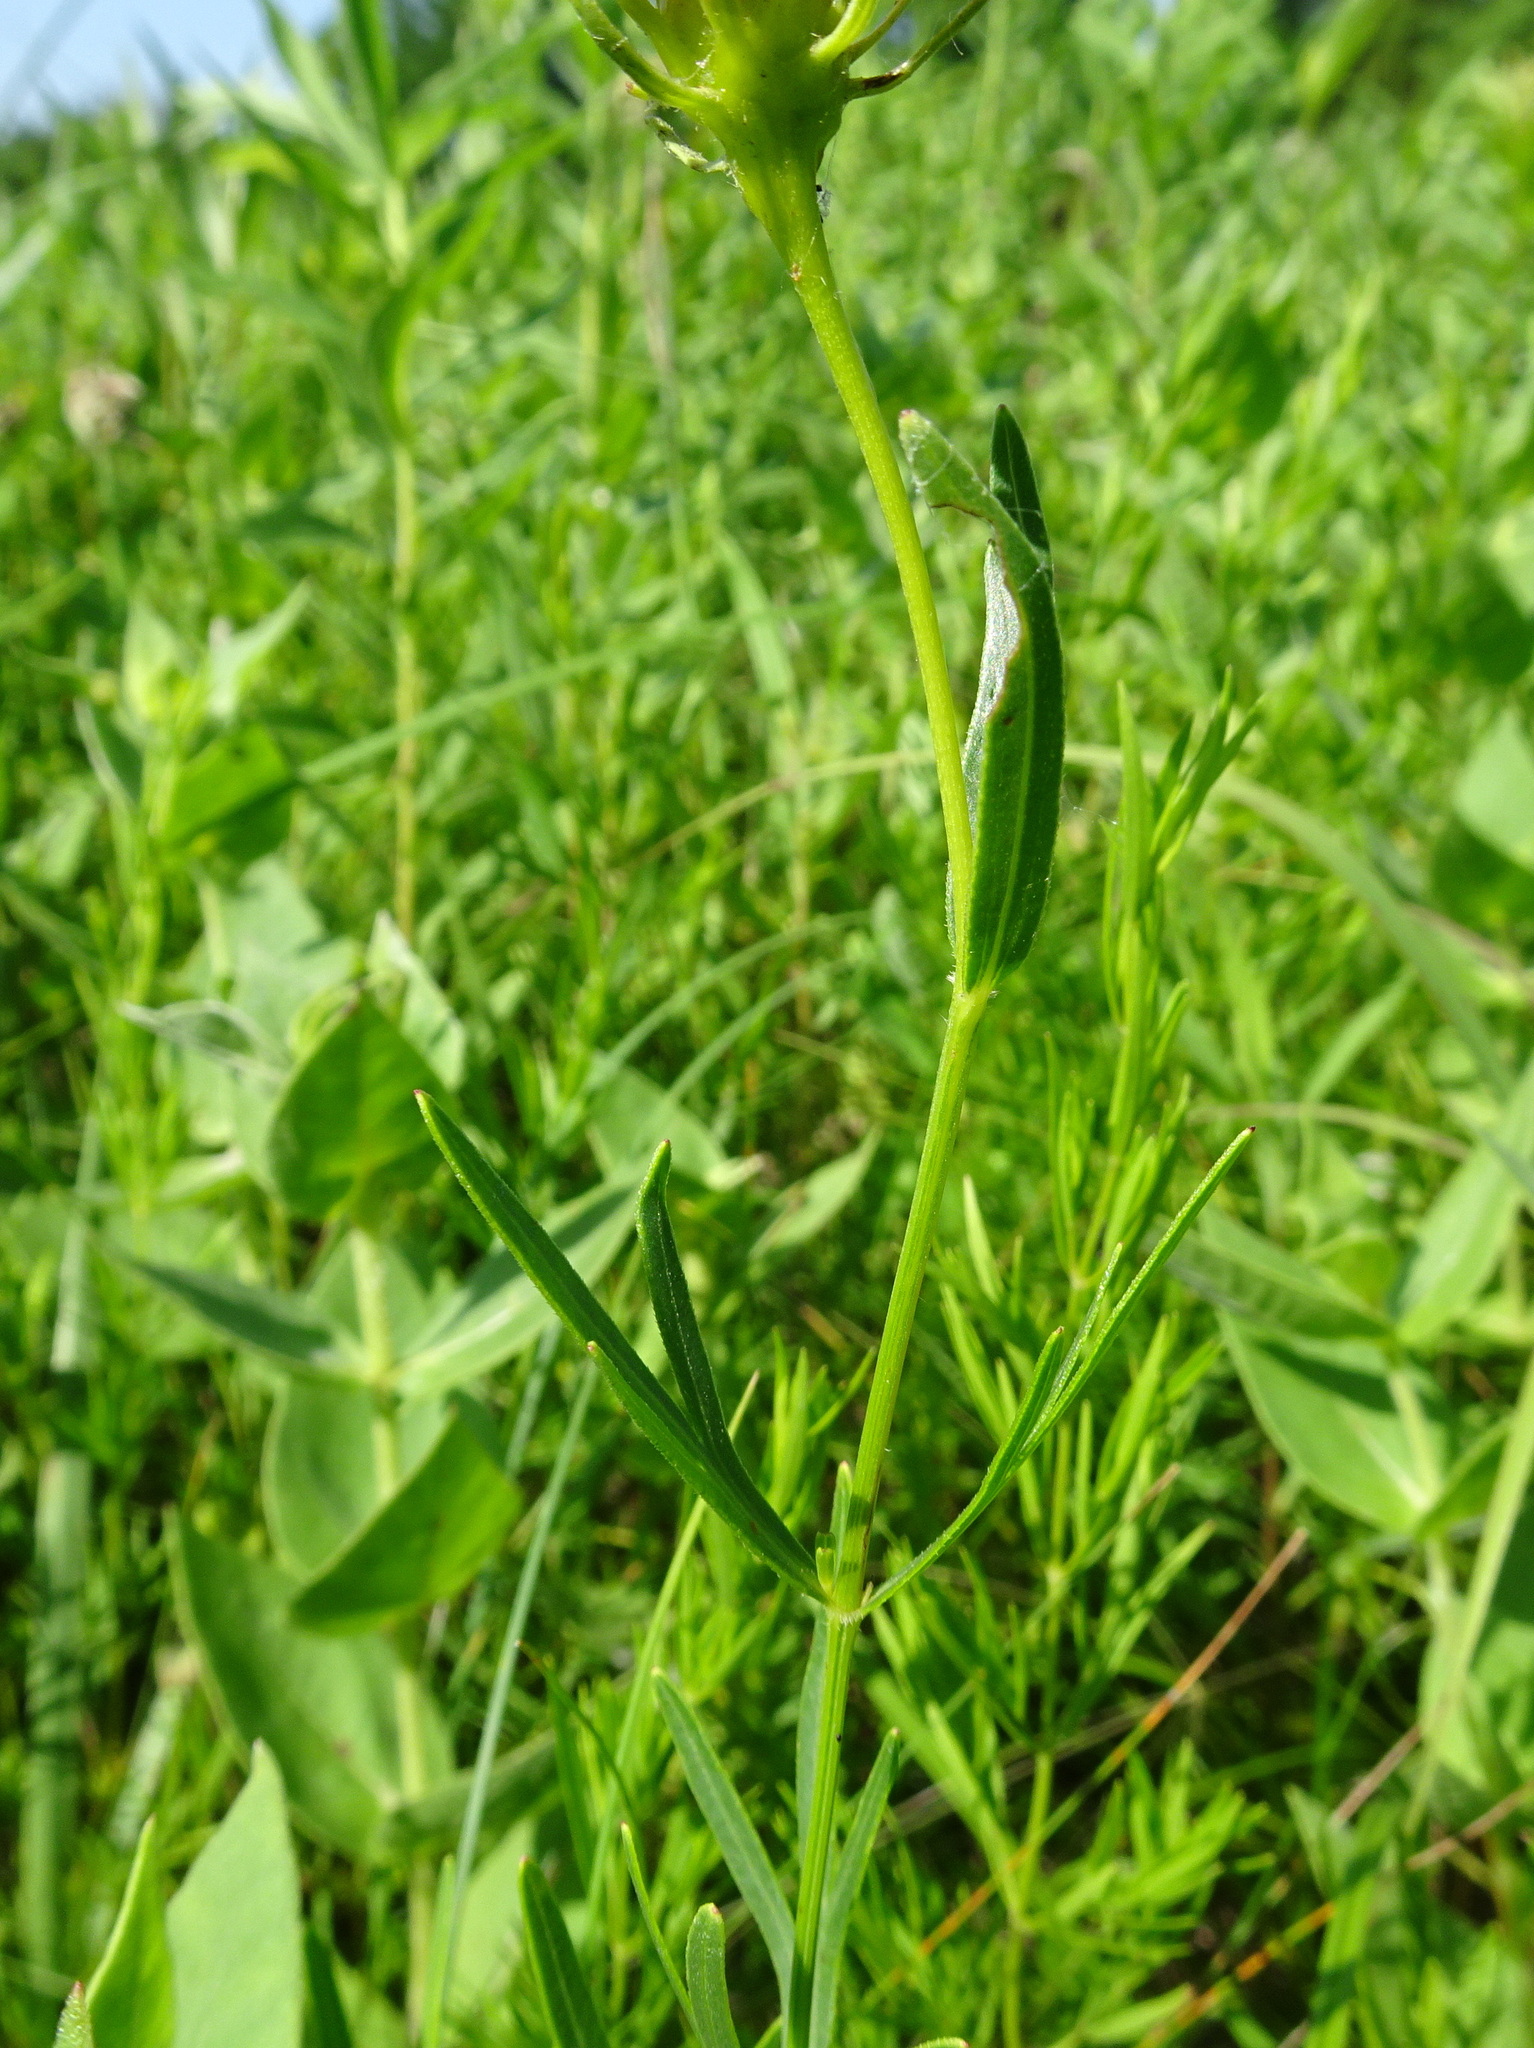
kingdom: Plantae
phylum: Tracheophyta
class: Magnoliopsida
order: Asterales
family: Asteraceae
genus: Coreopsis
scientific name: Coreopsis palmata
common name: Prairie coreopsis
